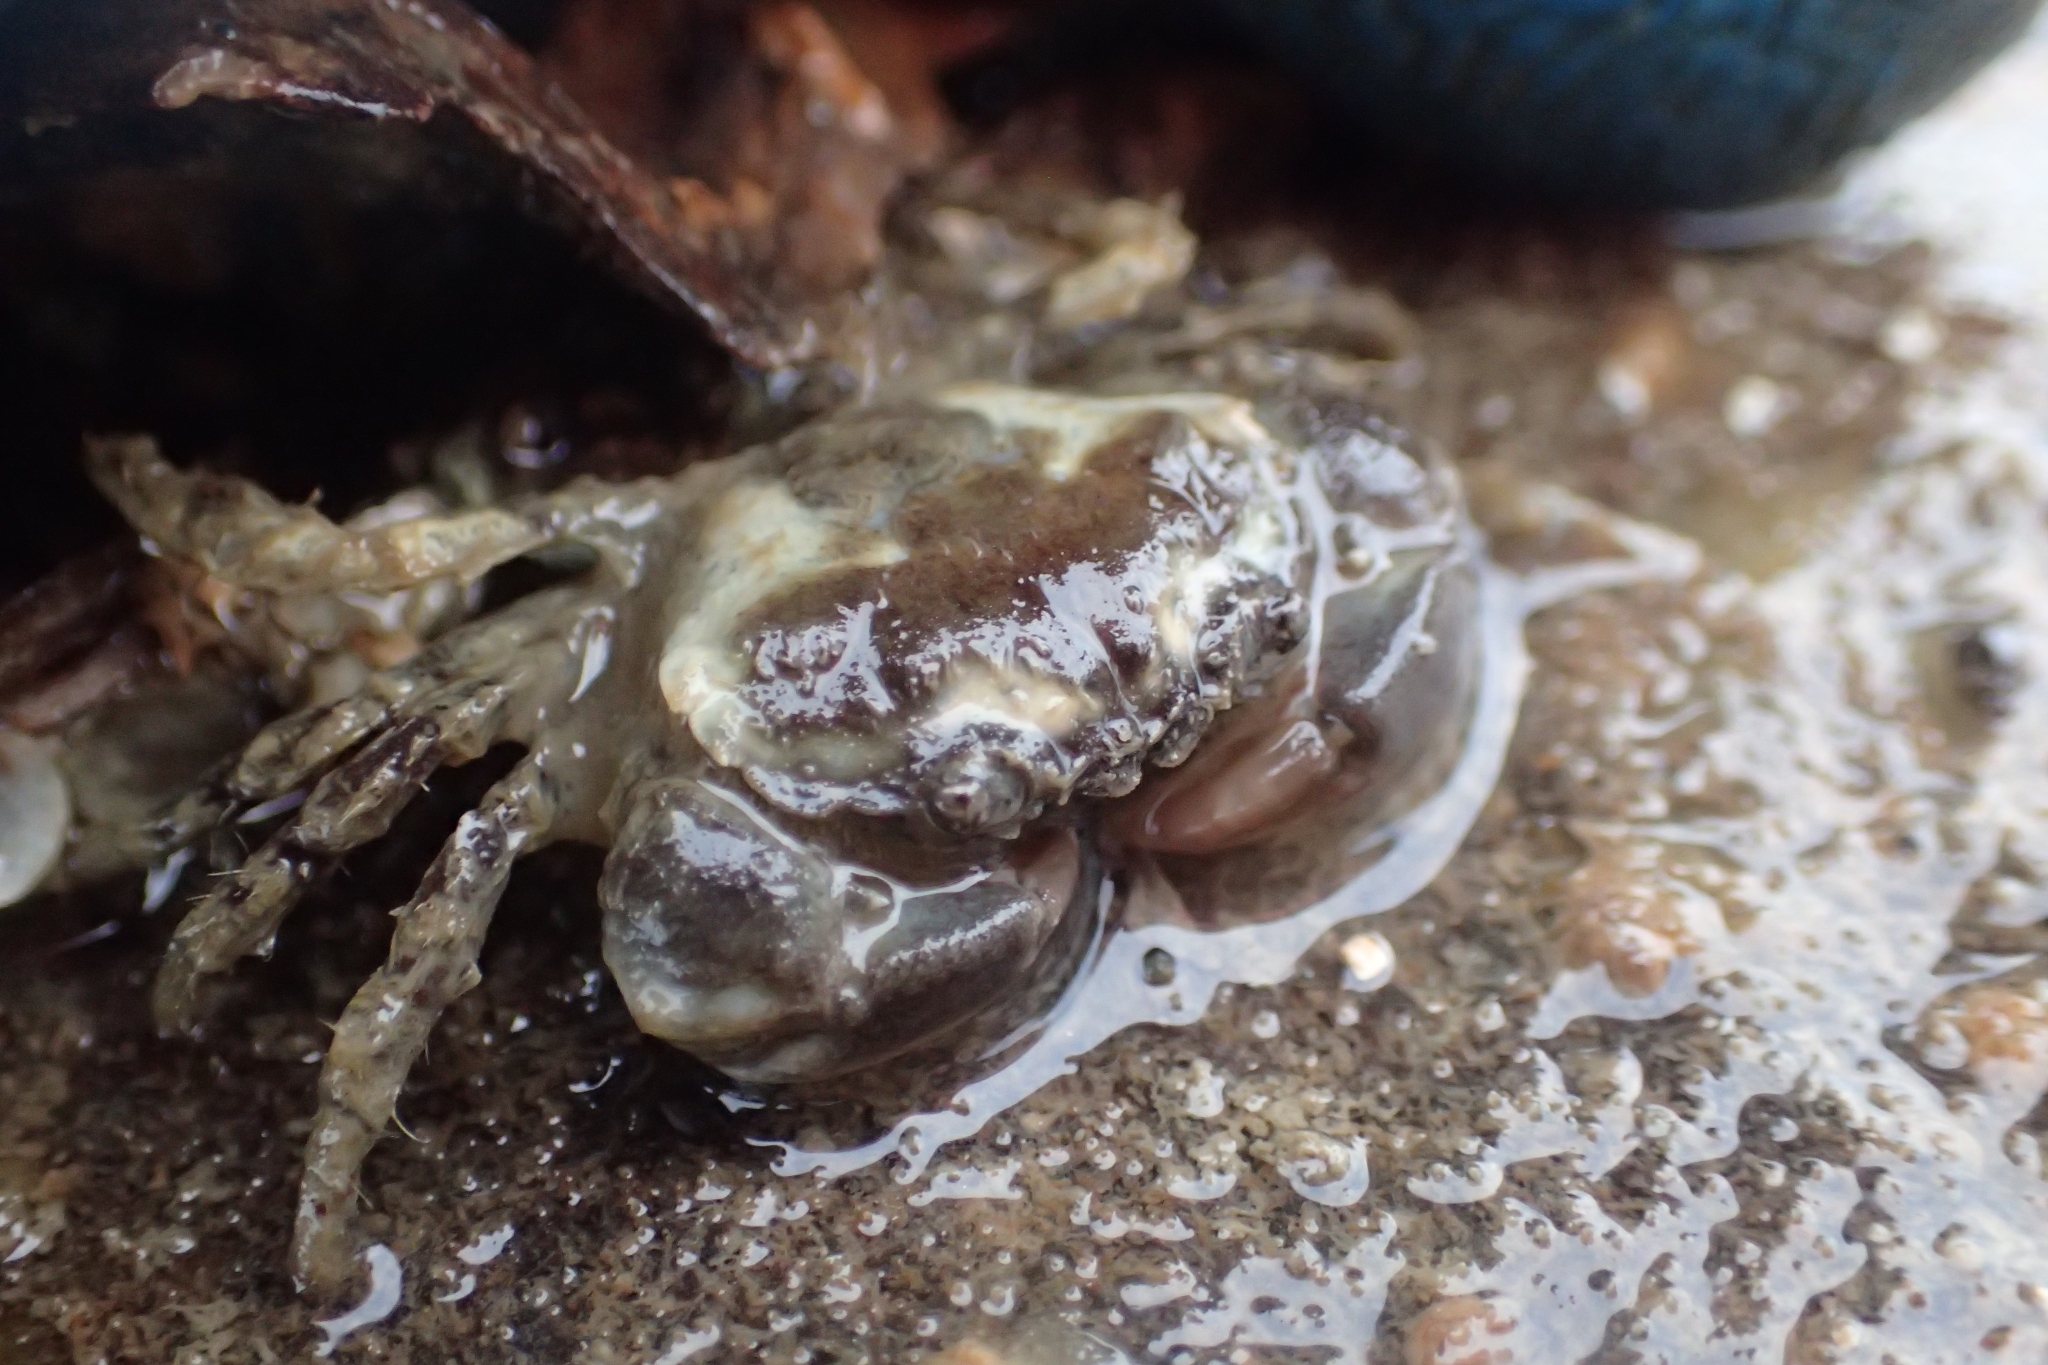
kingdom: Animalia
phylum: Arthropoda
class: Malacostraca
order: Decapoda
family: Pilumnidae
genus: Pilumnopeus
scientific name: Pilumnopeus serratifrons
